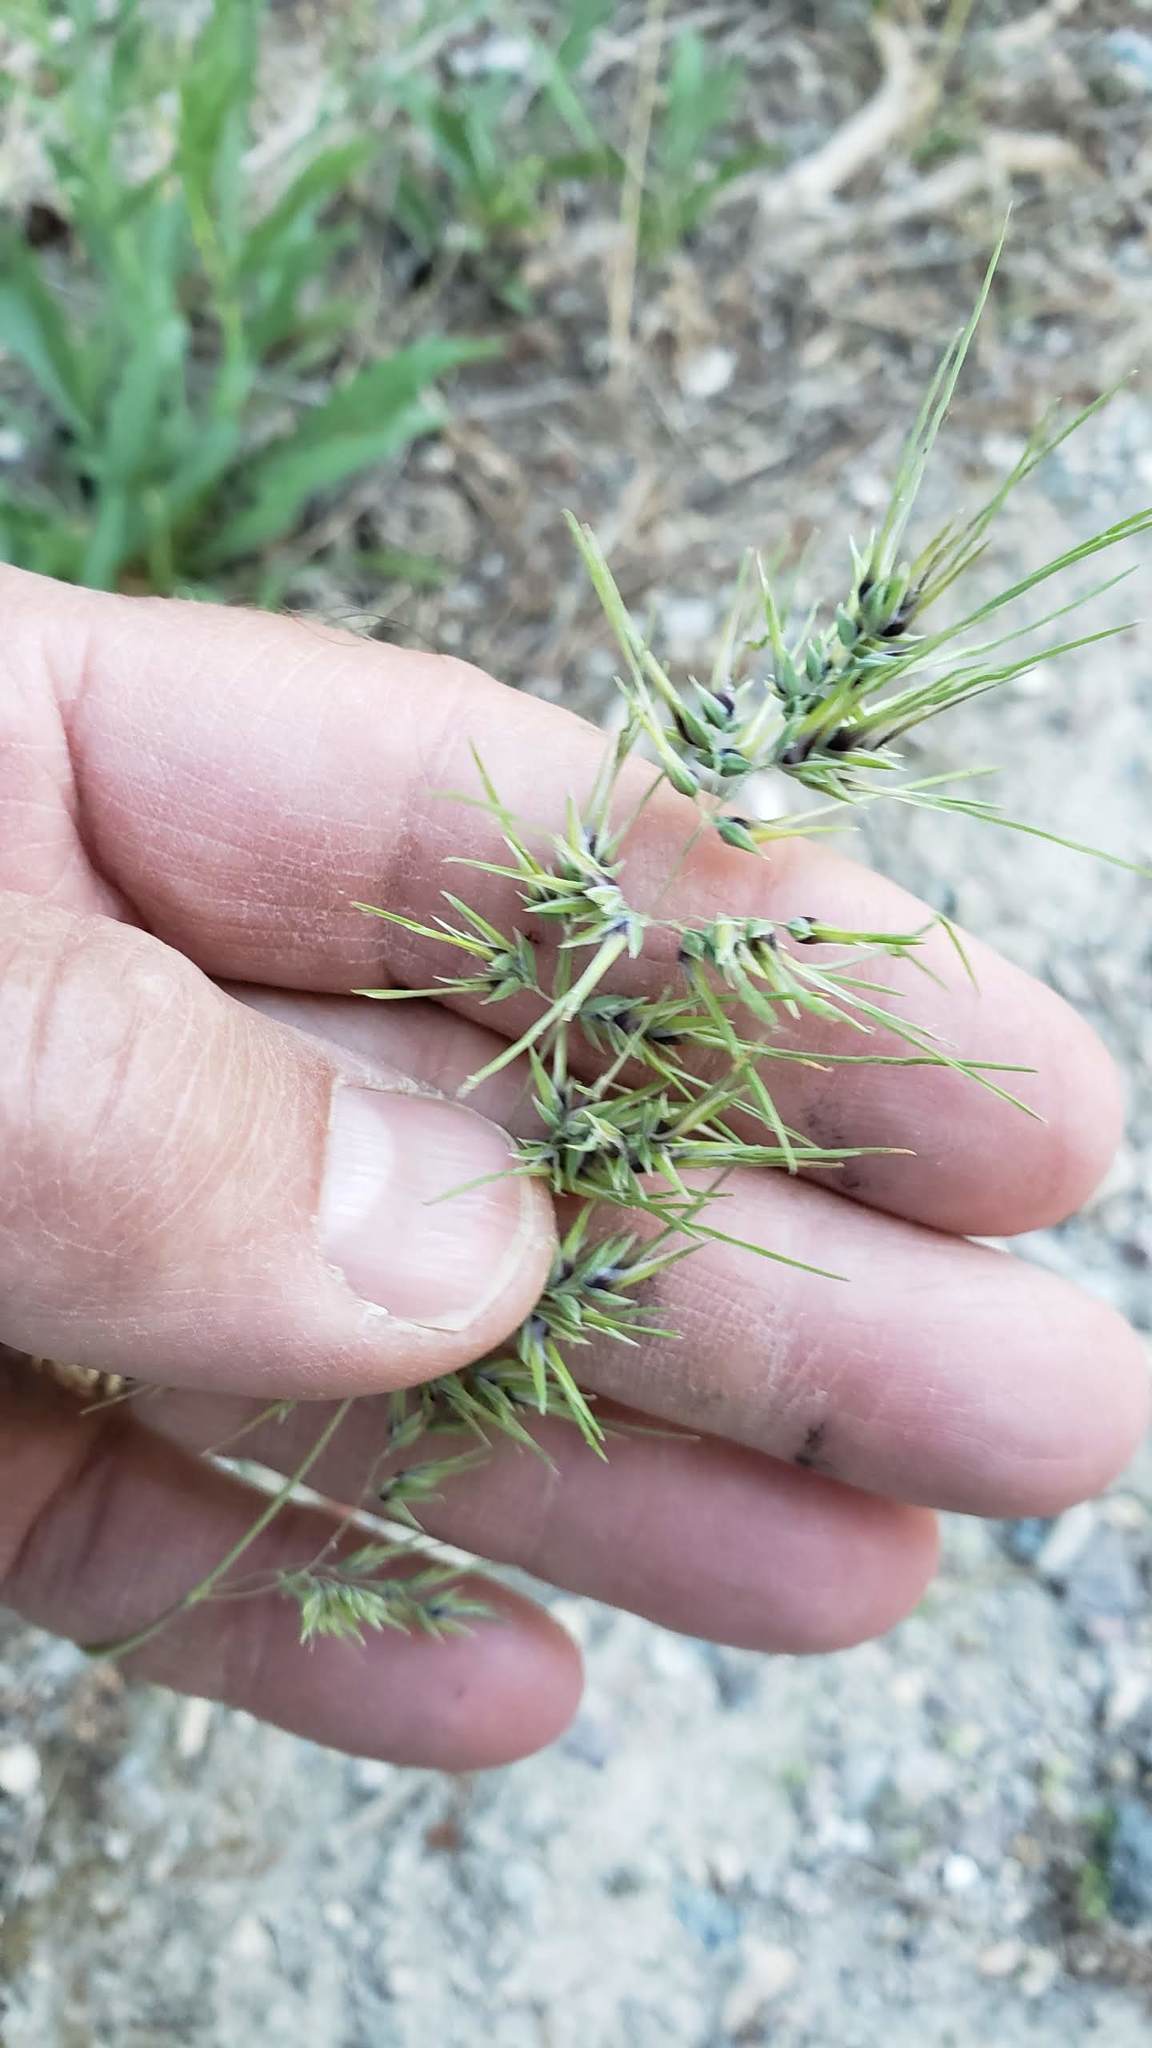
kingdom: Plantae
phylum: Tracheophyta
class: Liliopsida
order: Poales
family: Poaceae
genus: Poa
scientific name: Poa bulbosa
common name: Bulbous bluegrass
